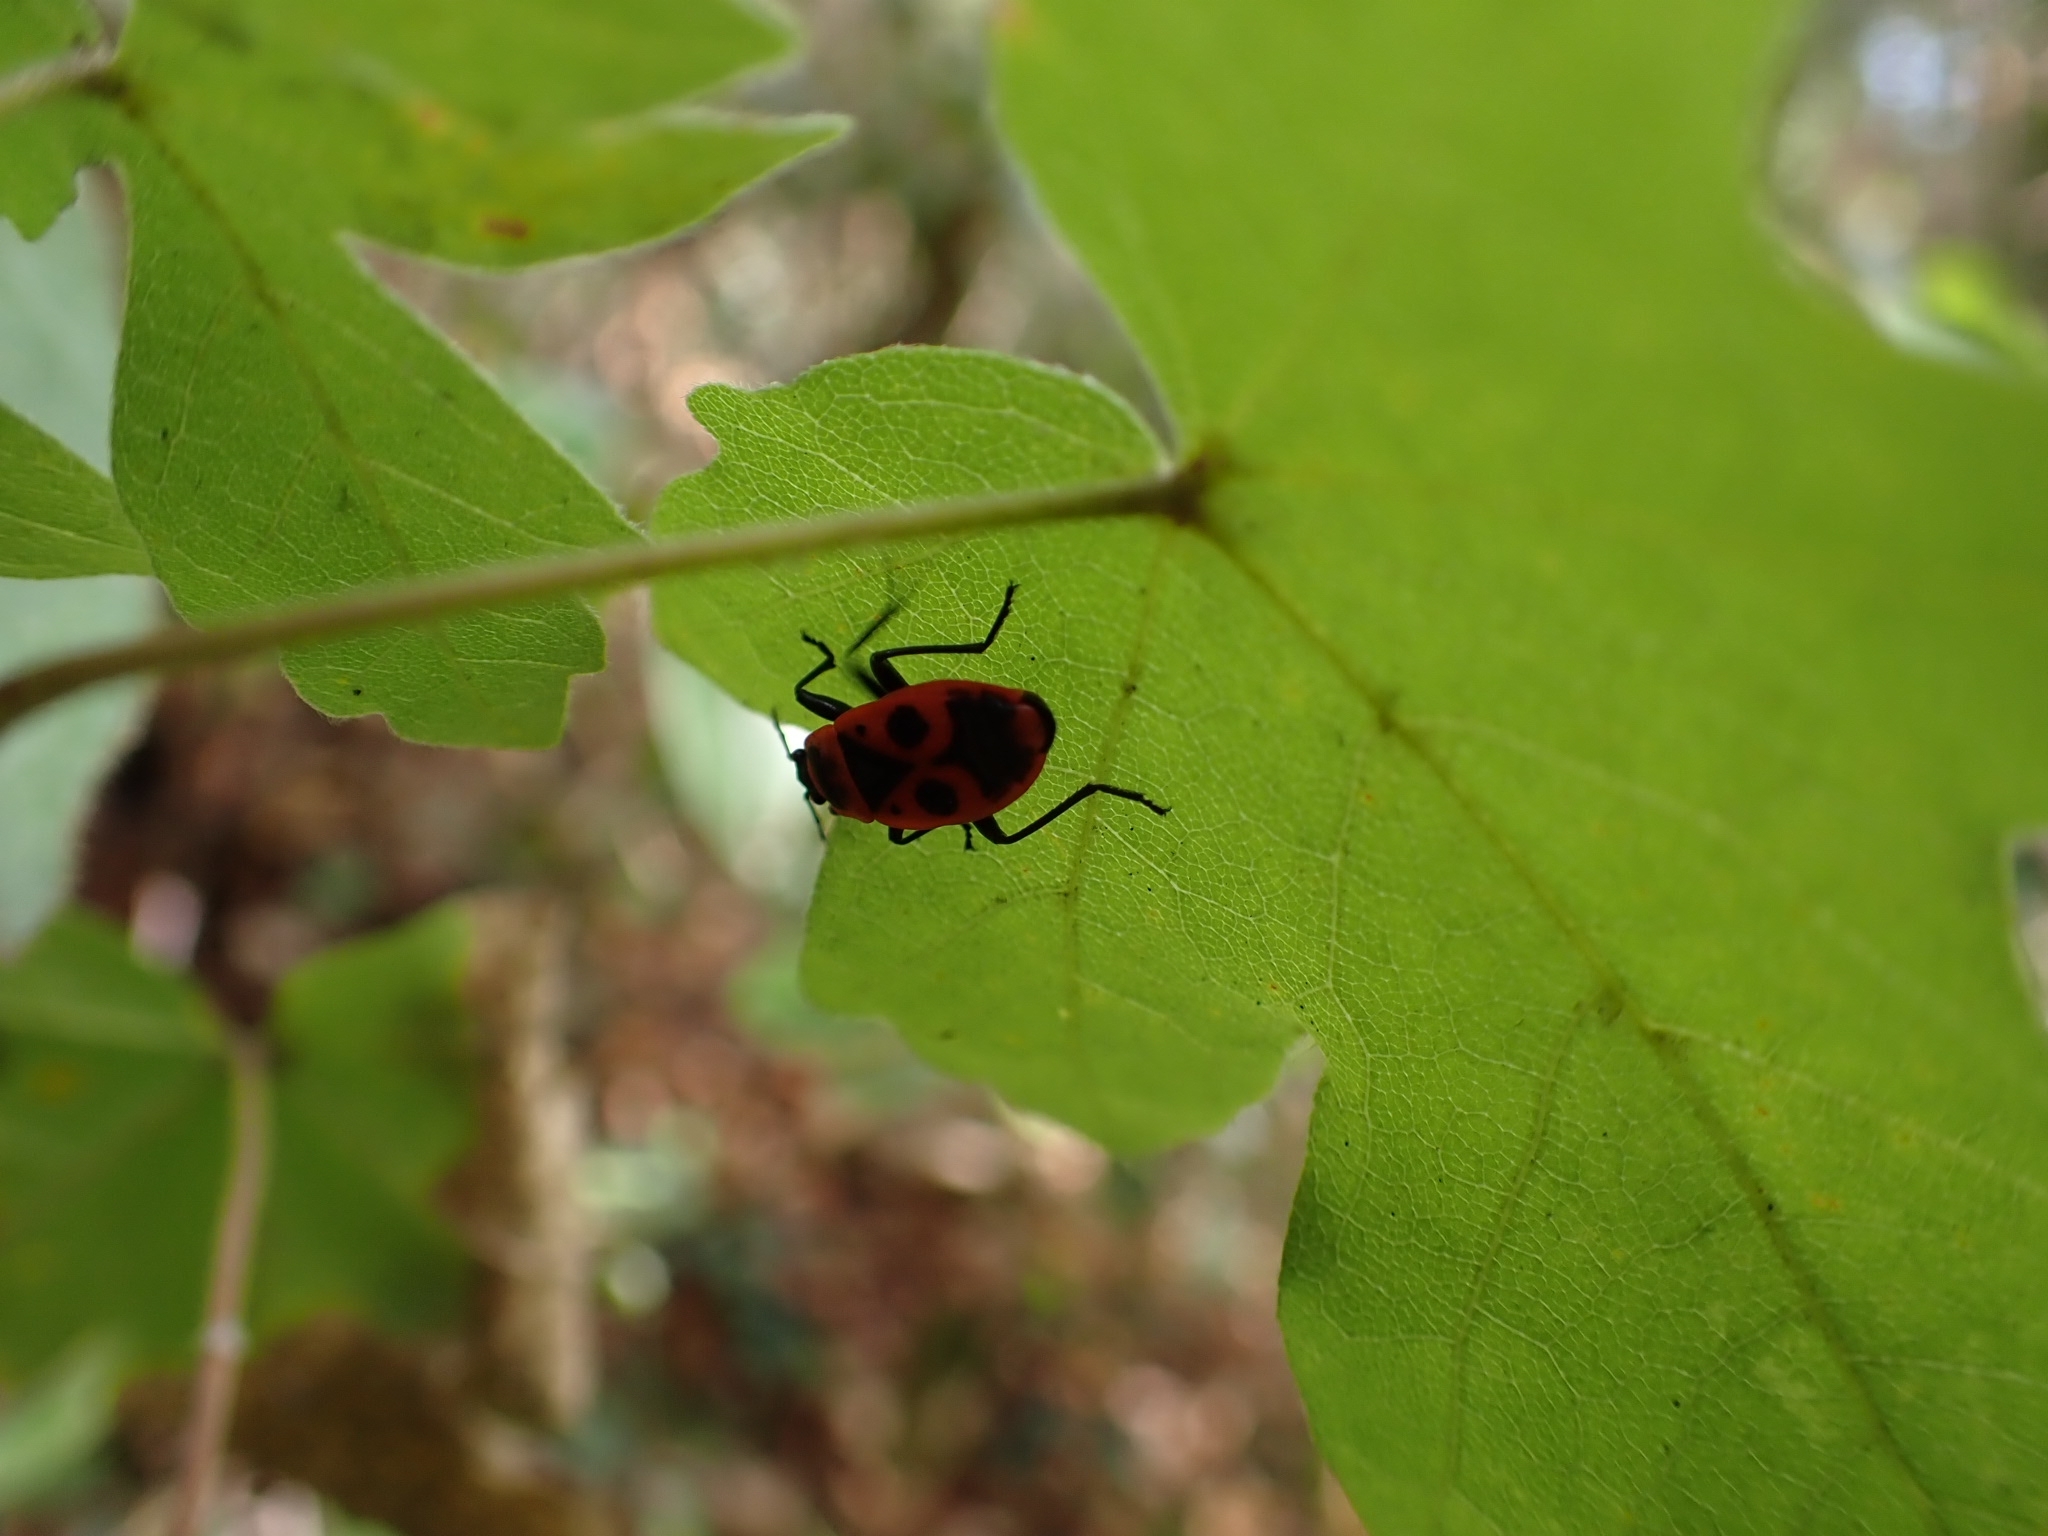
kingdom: Animalia
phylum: Arthropoda
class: Insecta
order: Hemiptera
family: Pyrrhocoridae
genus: Pyrrhocoris
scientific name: Pyrrhocoris apterus
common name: Firebug
